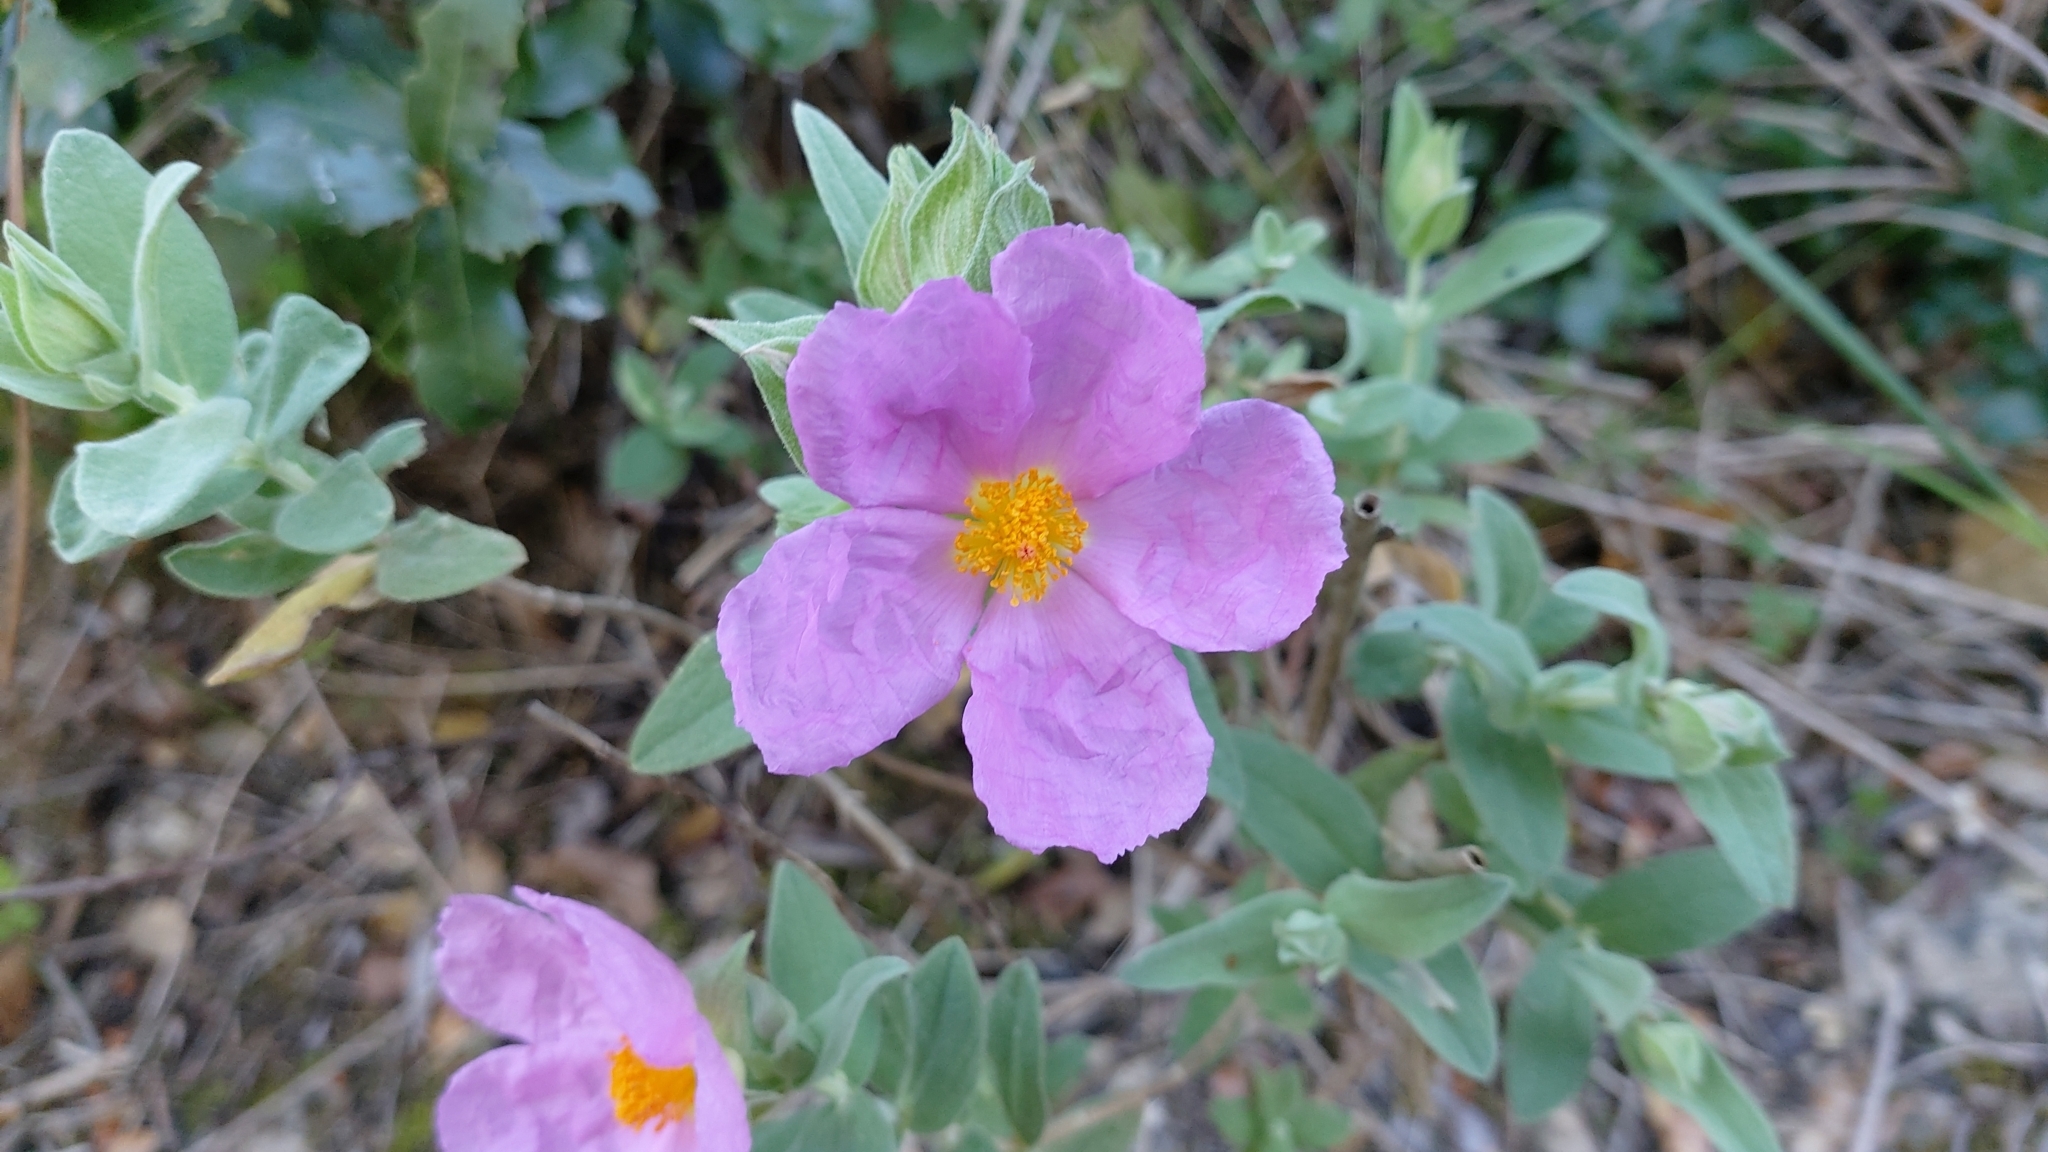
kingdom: Plantae
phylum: Tracheophyta
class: Magnoliopsida
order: Malvales
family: Cistaceae
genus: Cistus
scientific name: Cistus albidus
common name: White-leaf rock-rose
